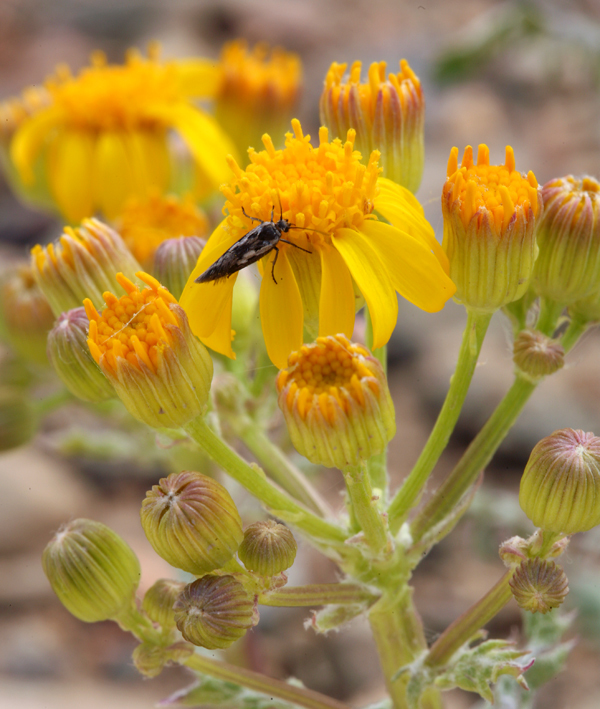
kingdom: Plantae
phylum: Tracheophyta
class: Magnoliopsida
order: Asterales
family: Asteraceae
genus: Packera
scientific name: Packera multilobata
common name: Lobe-leaf groundsel
